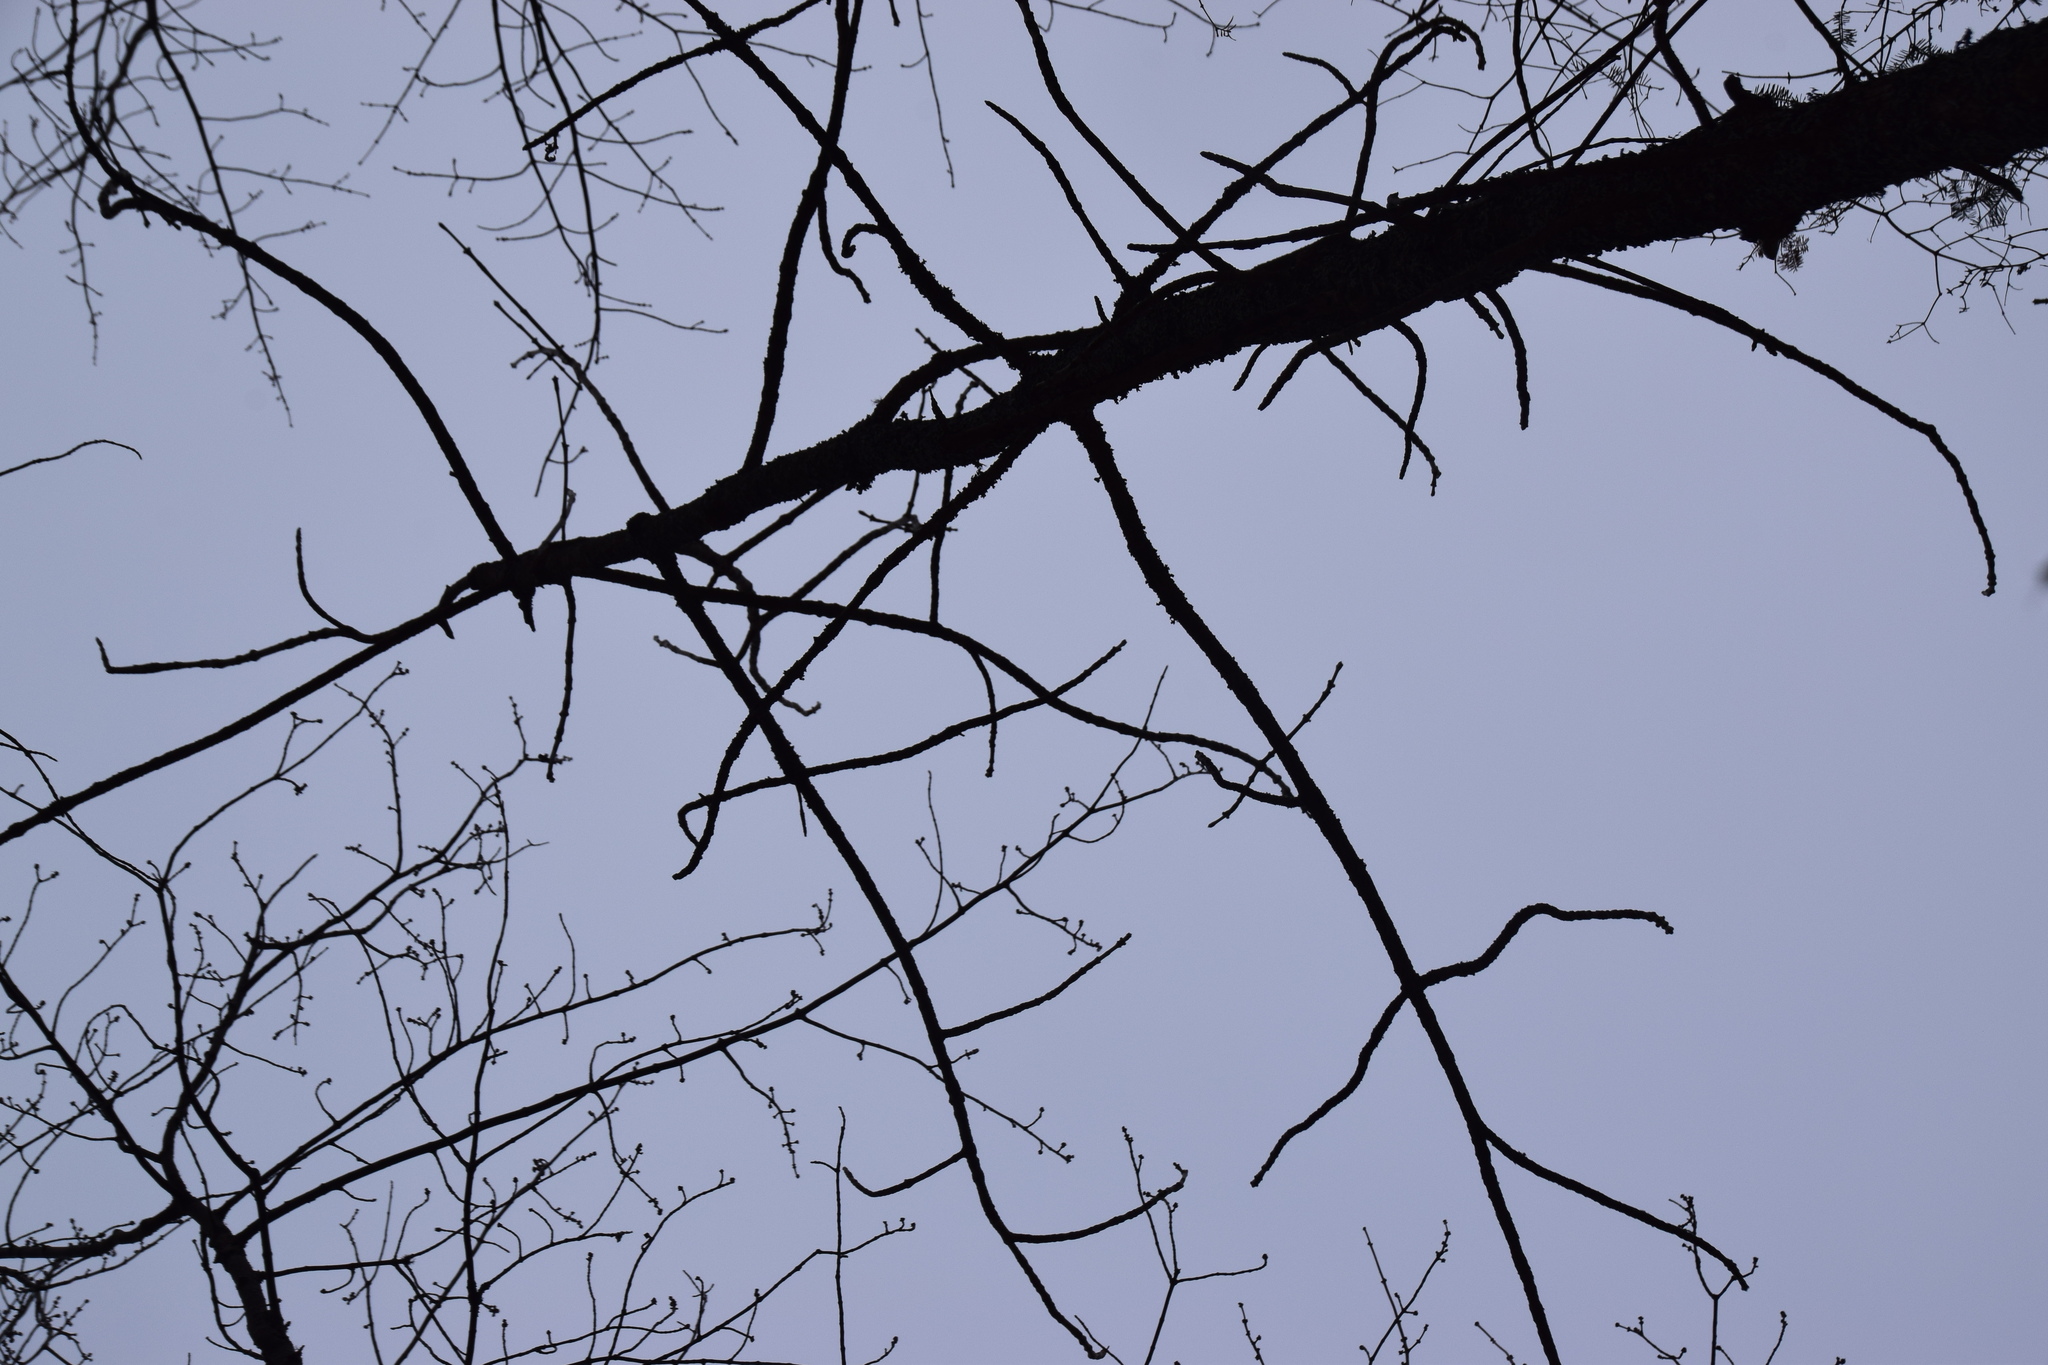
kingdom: Plantae
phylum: Tracheophyta
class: Magnoliopsida
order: Lamiales
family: Oleaceae
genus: Fraxinus
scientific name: Fraxinus nigra
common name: Black ash
